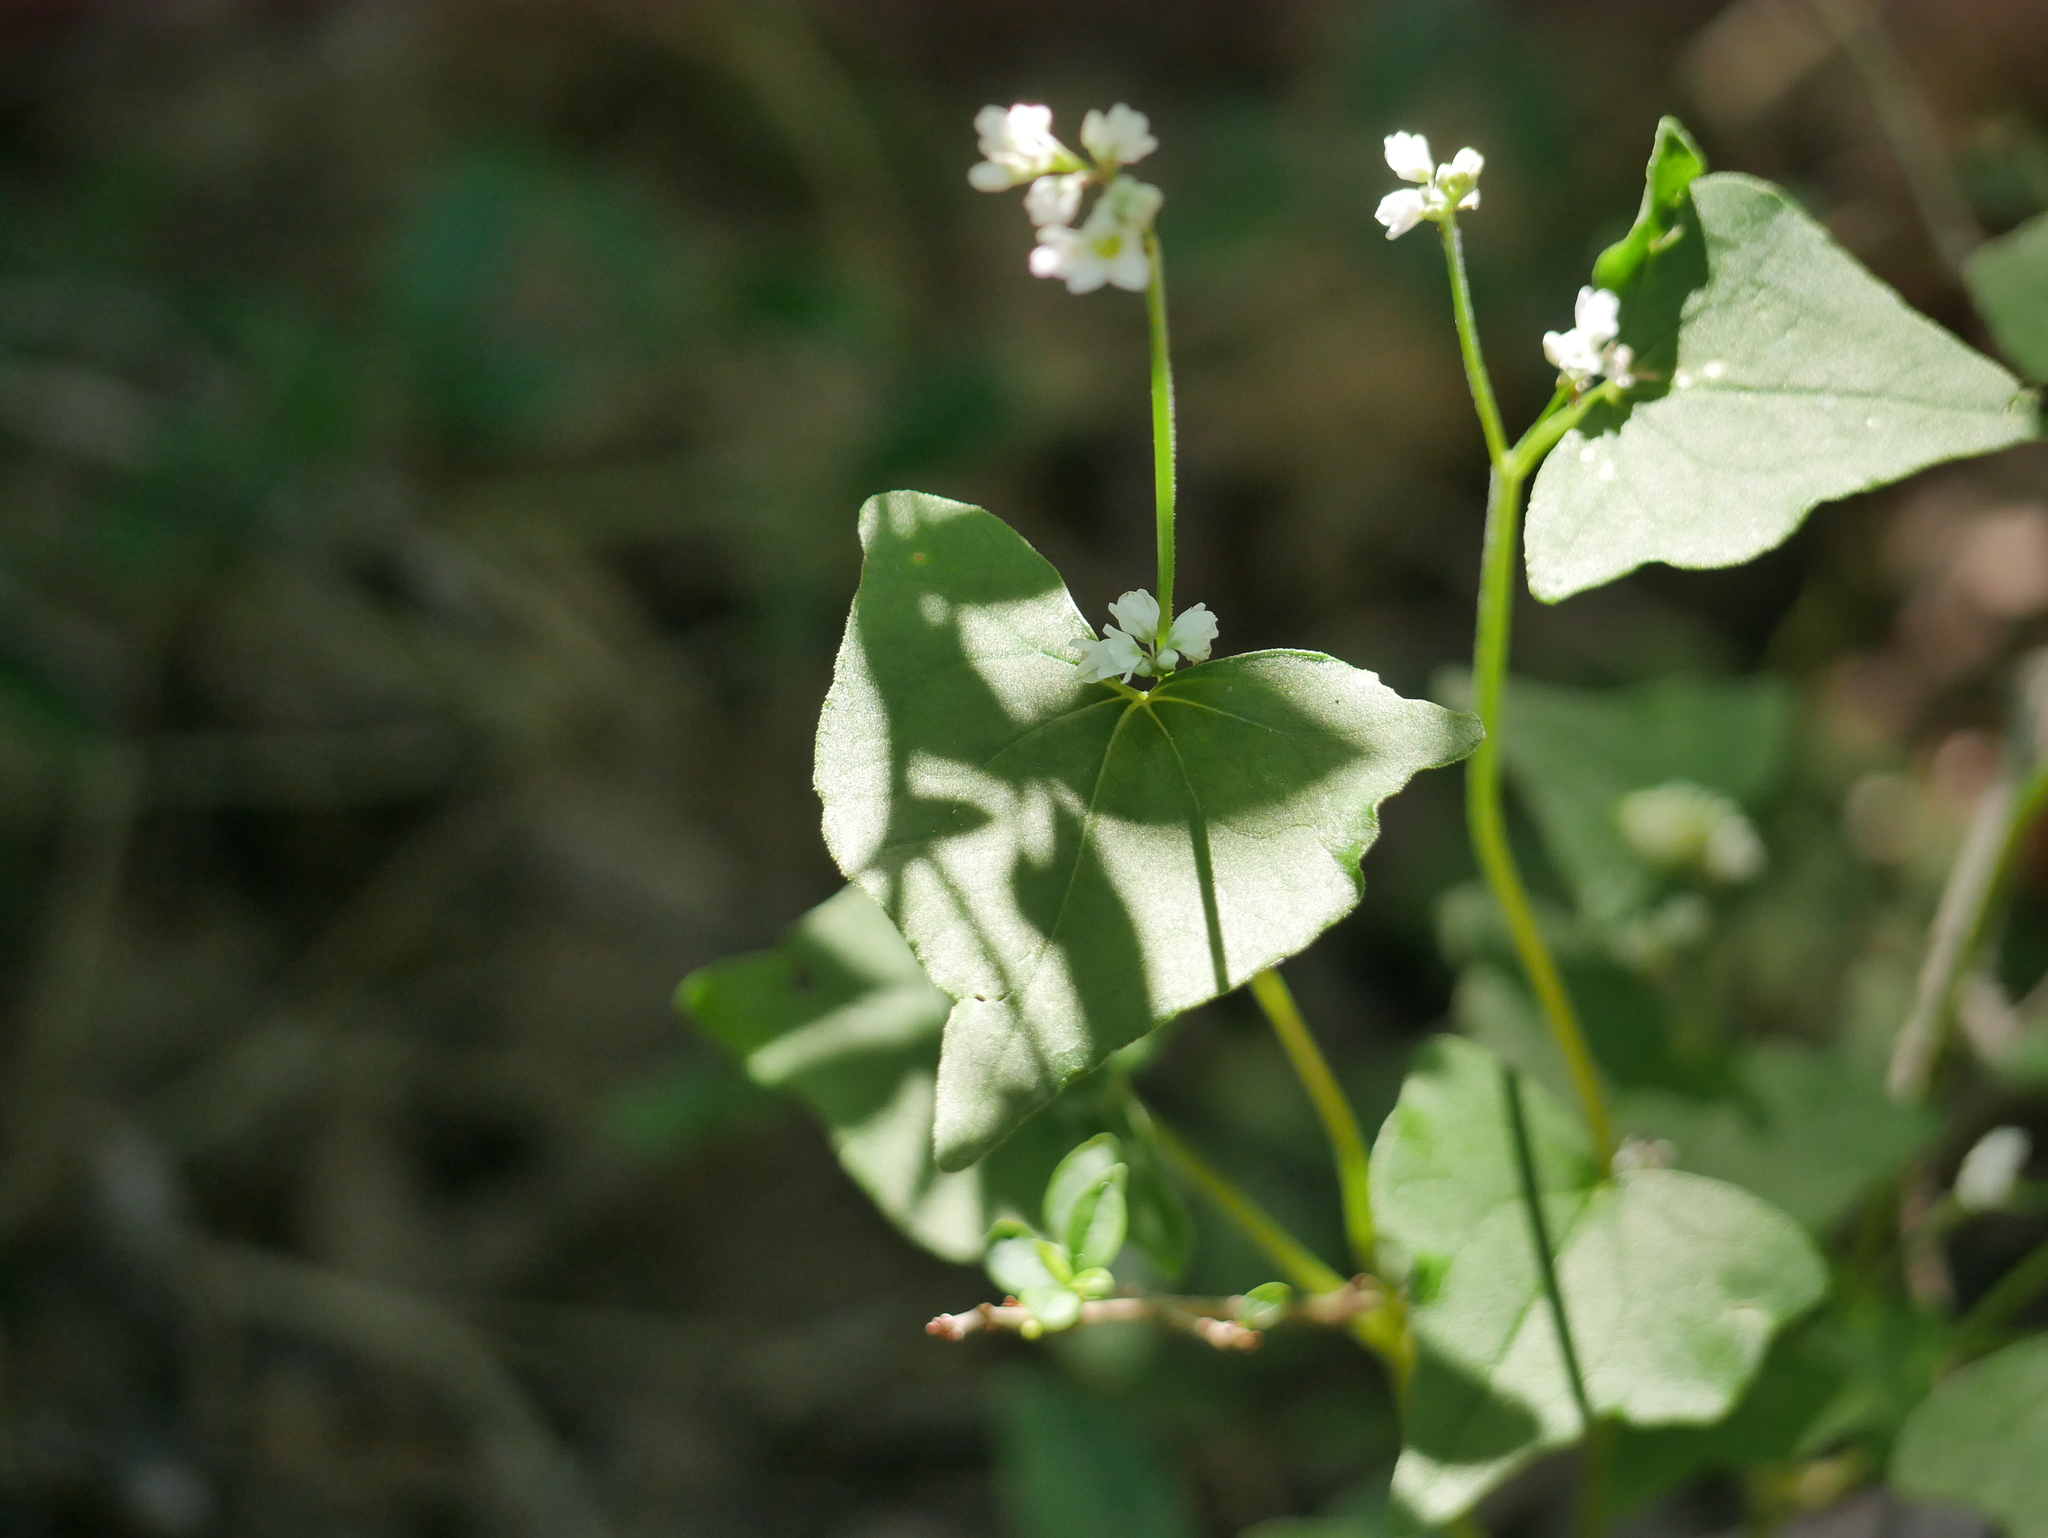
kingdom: Plantae
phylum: Tracheophyta
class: Magnoliopsida
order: Caryophyllales
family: Polygonaceae
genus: Fagopyrum
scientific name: Fagopyrum esculentum
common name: Buckwheat
